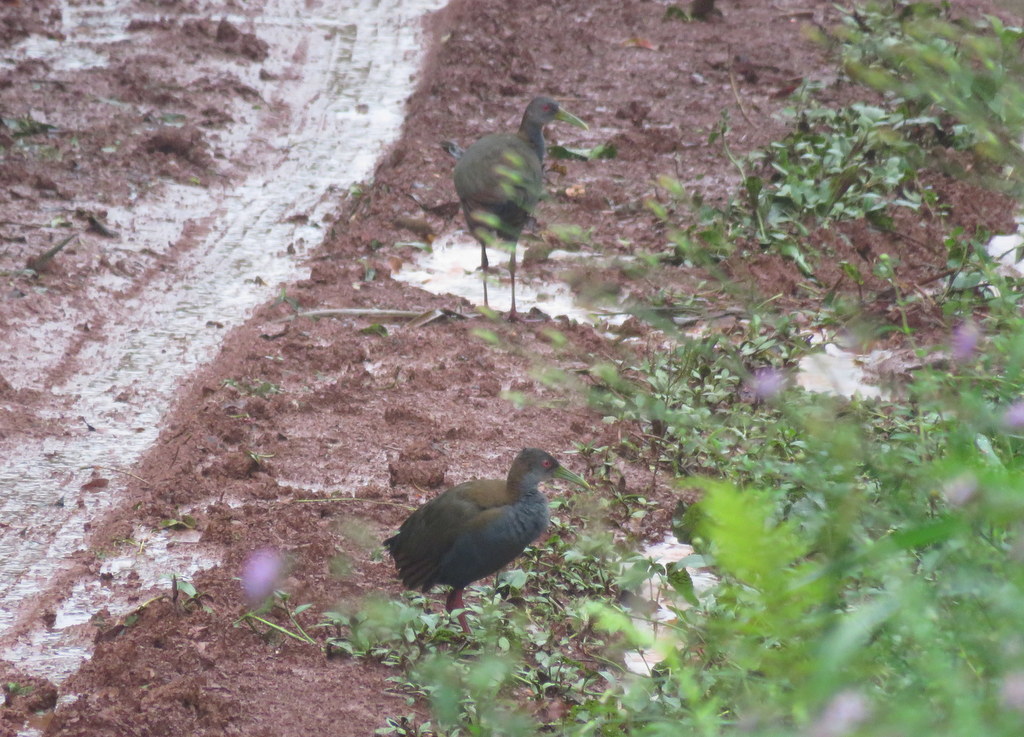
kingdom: Animalia
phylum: Chordata
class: Aves
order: Gruiformes
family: Rallidae
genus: Aramides
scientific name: Aramides saracura
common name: Slaty-breasted wood rail
